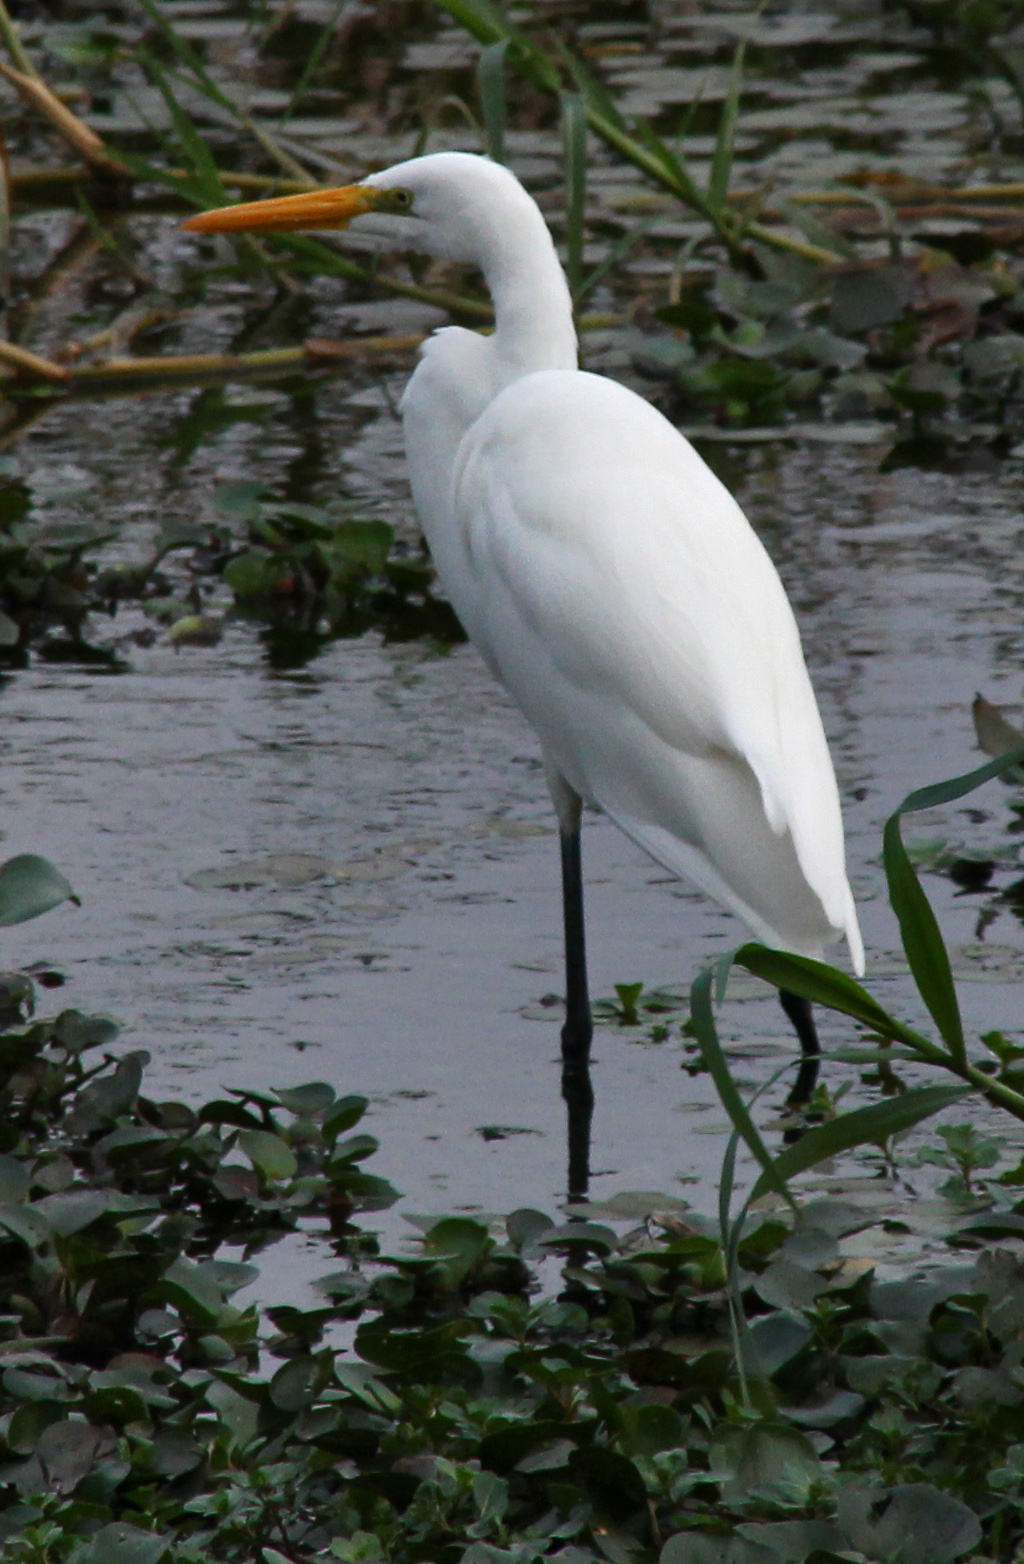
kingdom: Animalia
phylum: Chordata
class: Aves
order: Pelecaniformes
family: Ardeidae
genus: Ardea
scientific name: Ardea alba
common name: Great egret
